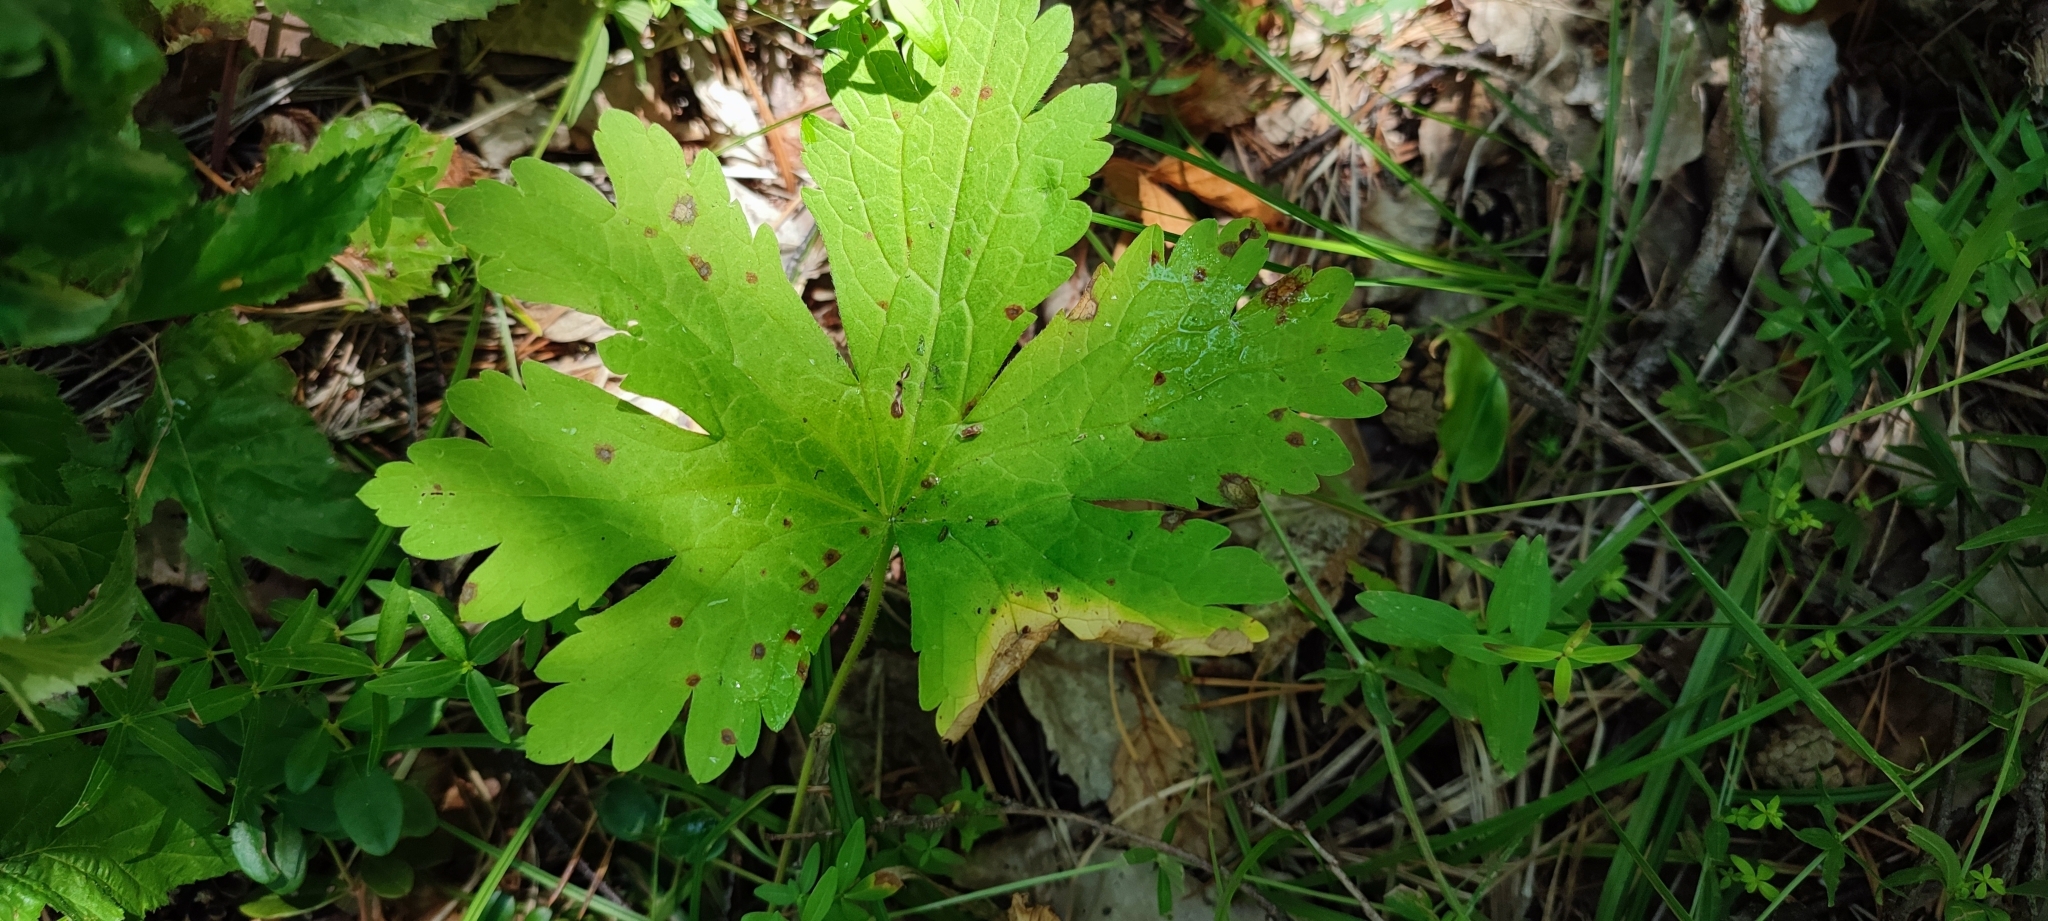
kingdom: Plantae
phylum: Tracheophyta
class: Magnoliopsida
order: Geraniales
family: Geraniaceae
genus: Geranium
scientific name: Geranium sylvaticum
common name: Wood crane's-bill
